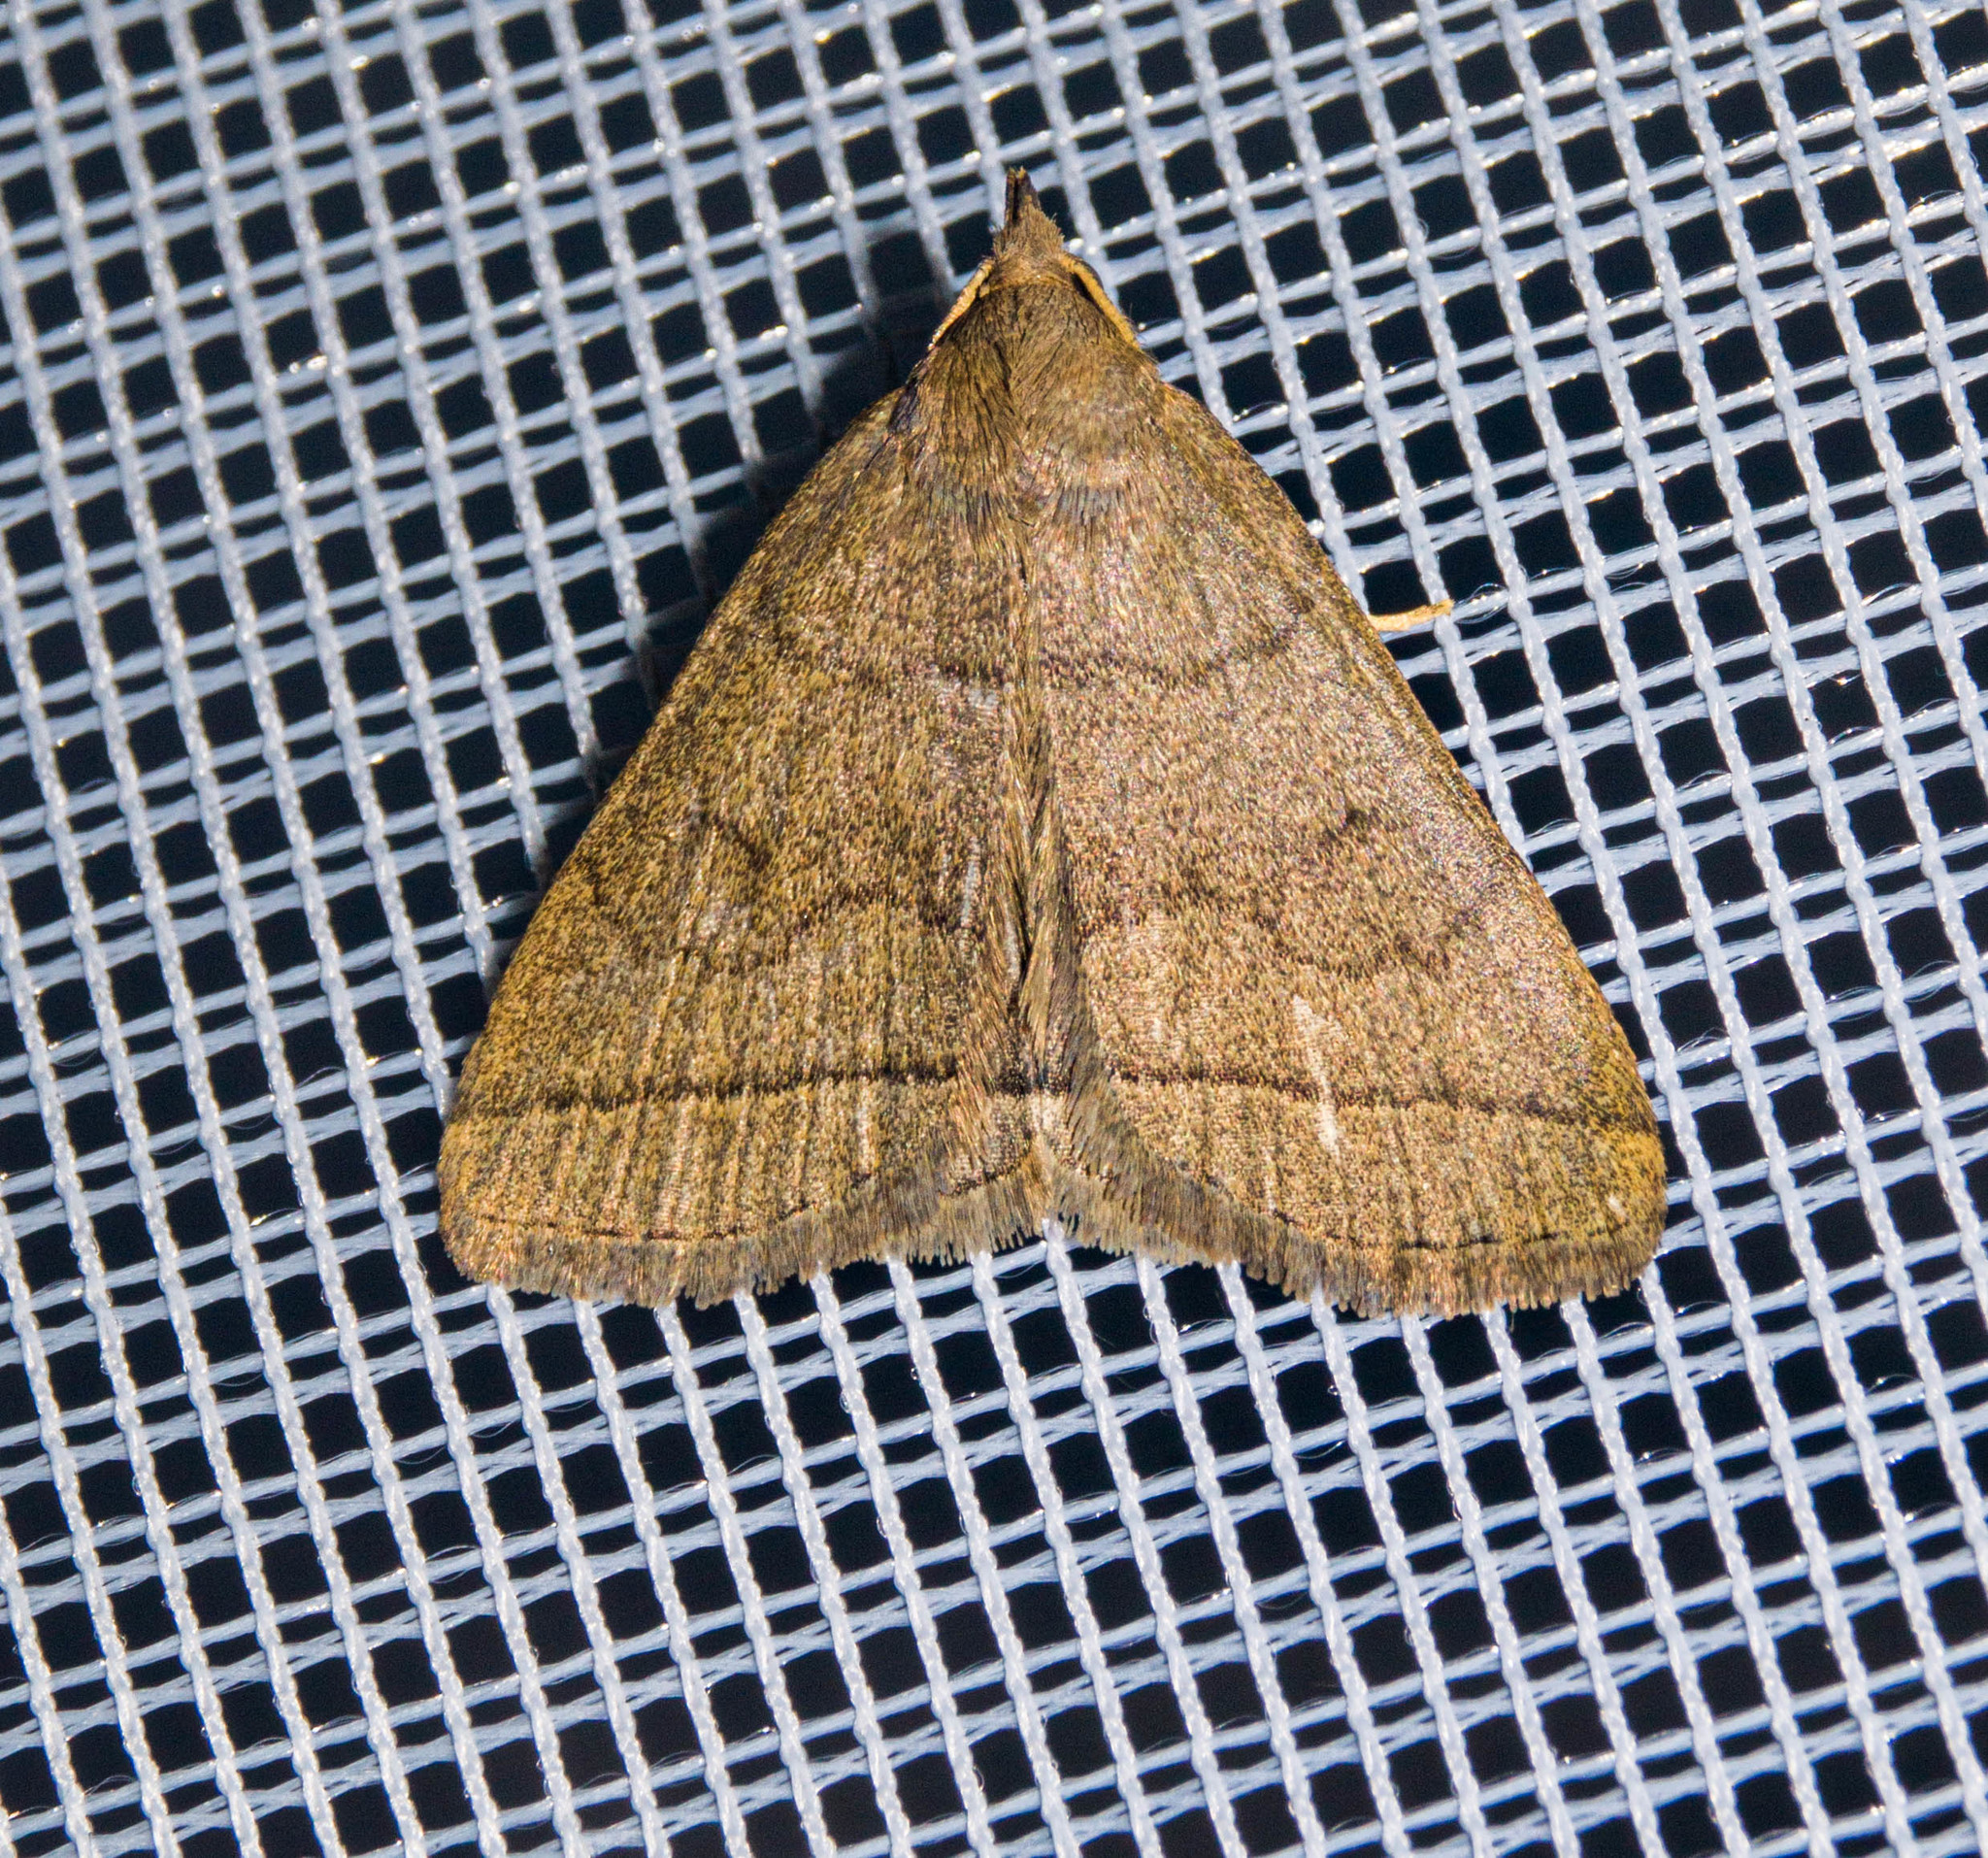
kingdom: Animalia
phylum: Arthropoda
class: Insecta
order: Lepidoptera
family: Erebidae
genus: Herminia
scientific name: Herminia tarsipennalis
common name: Fan-foot
